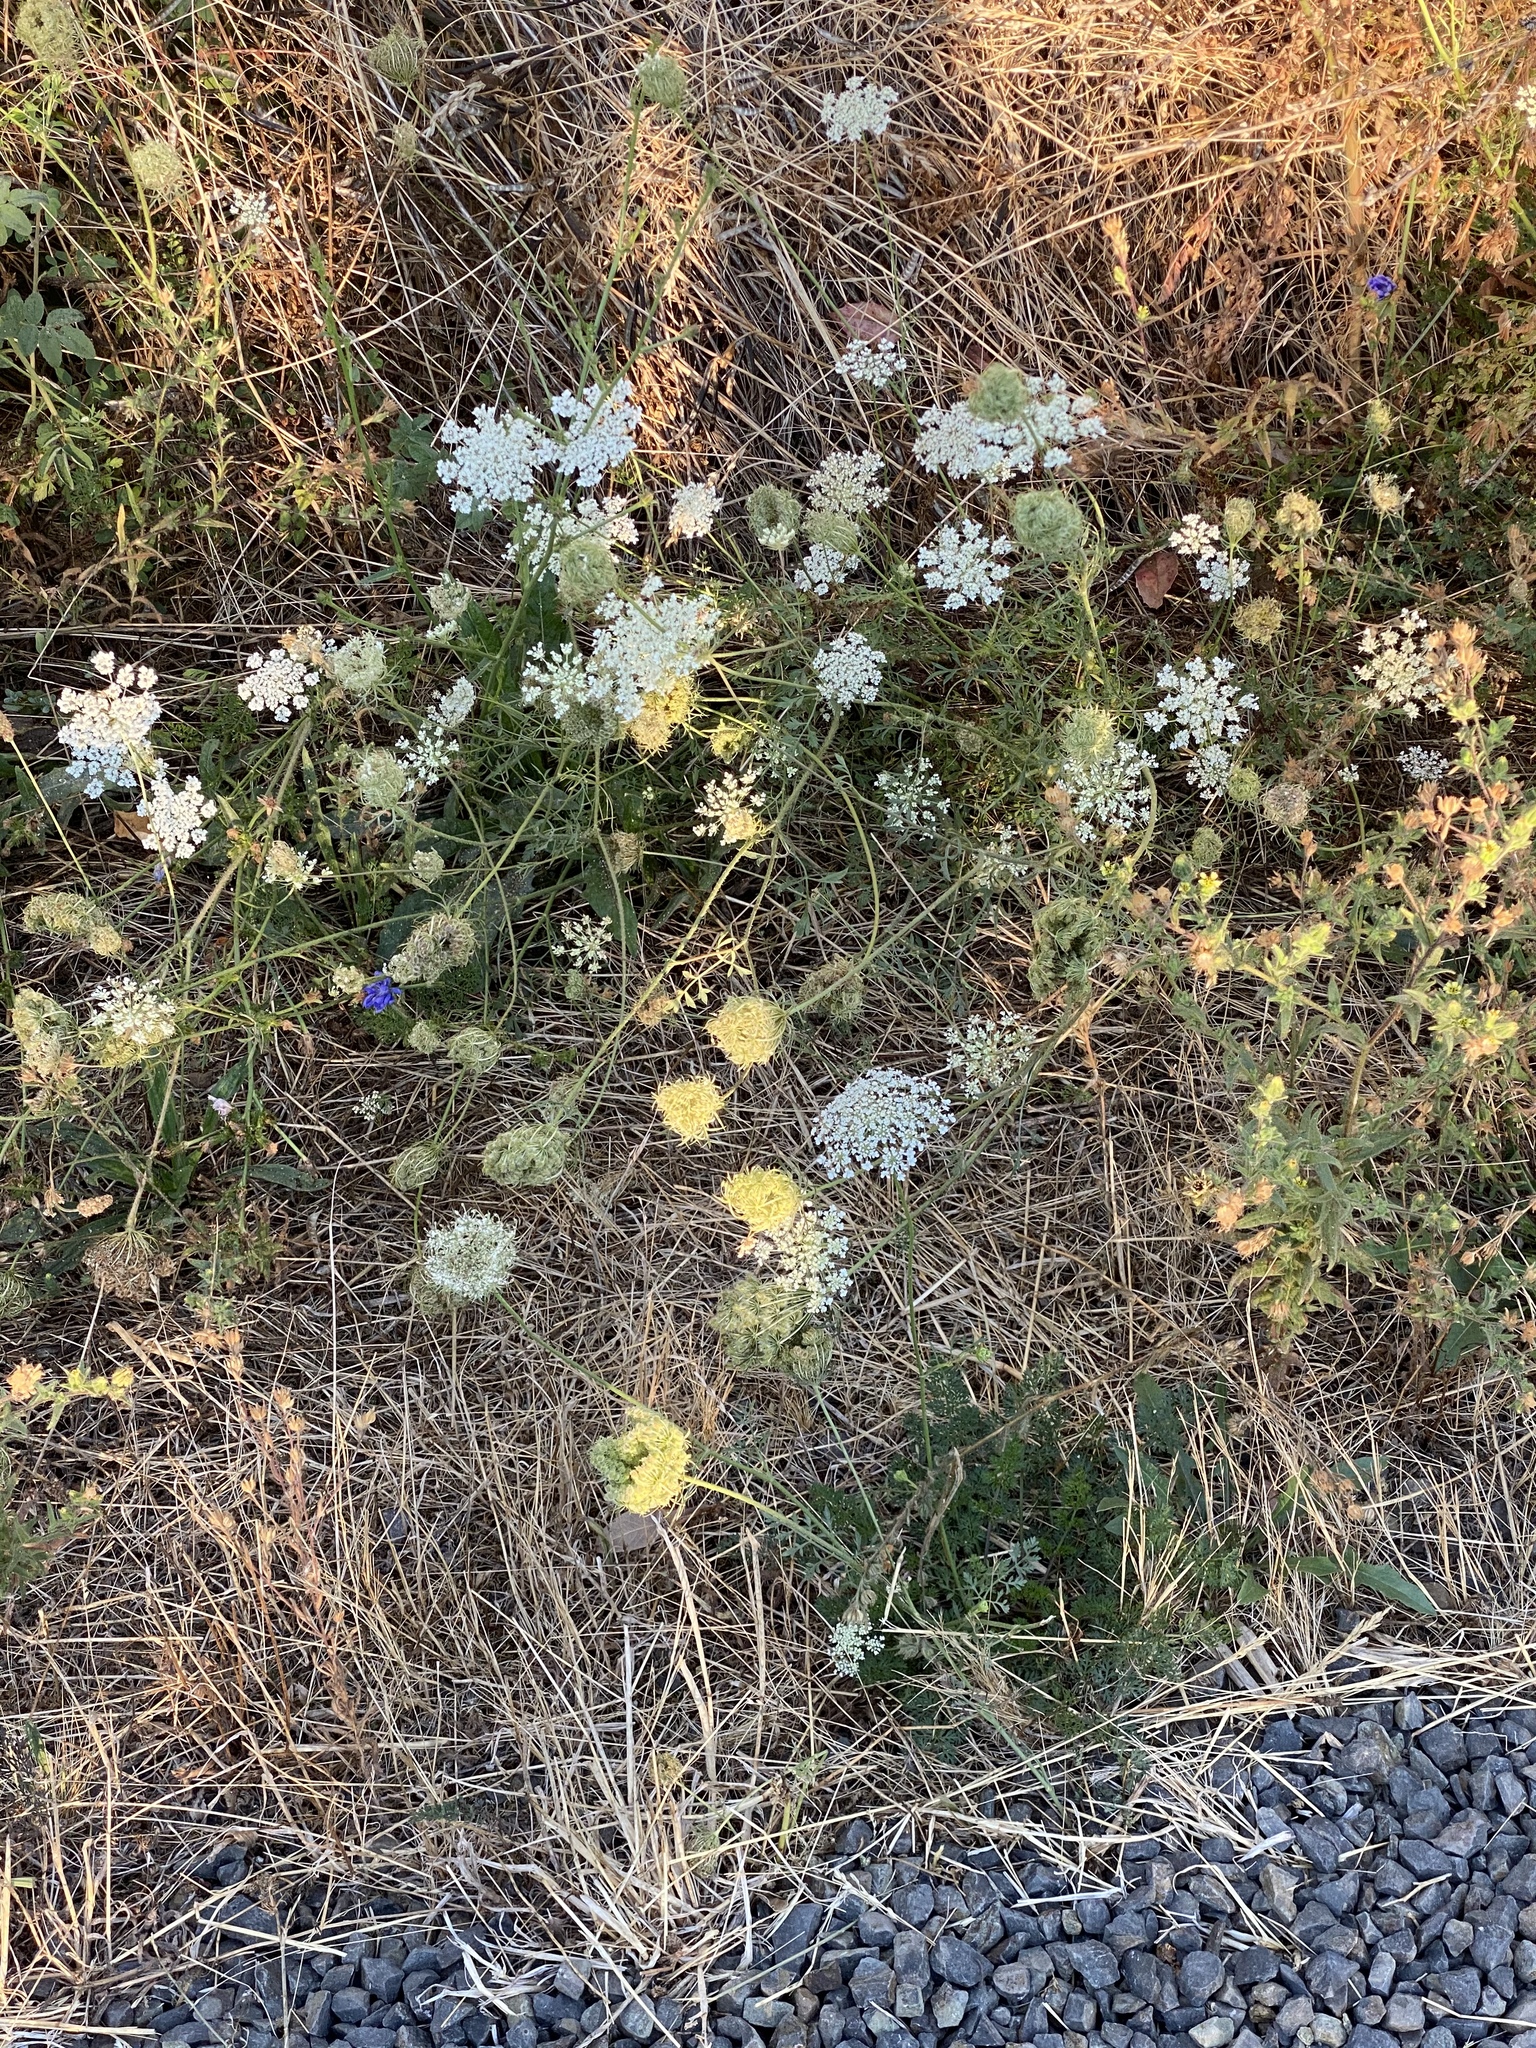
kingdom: Plantae
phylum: Tracheophyta
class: Magnoliopsida
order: Apiales
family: Apiaceae
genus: Daucus
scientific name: Daucus carota
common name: Wild carrot
